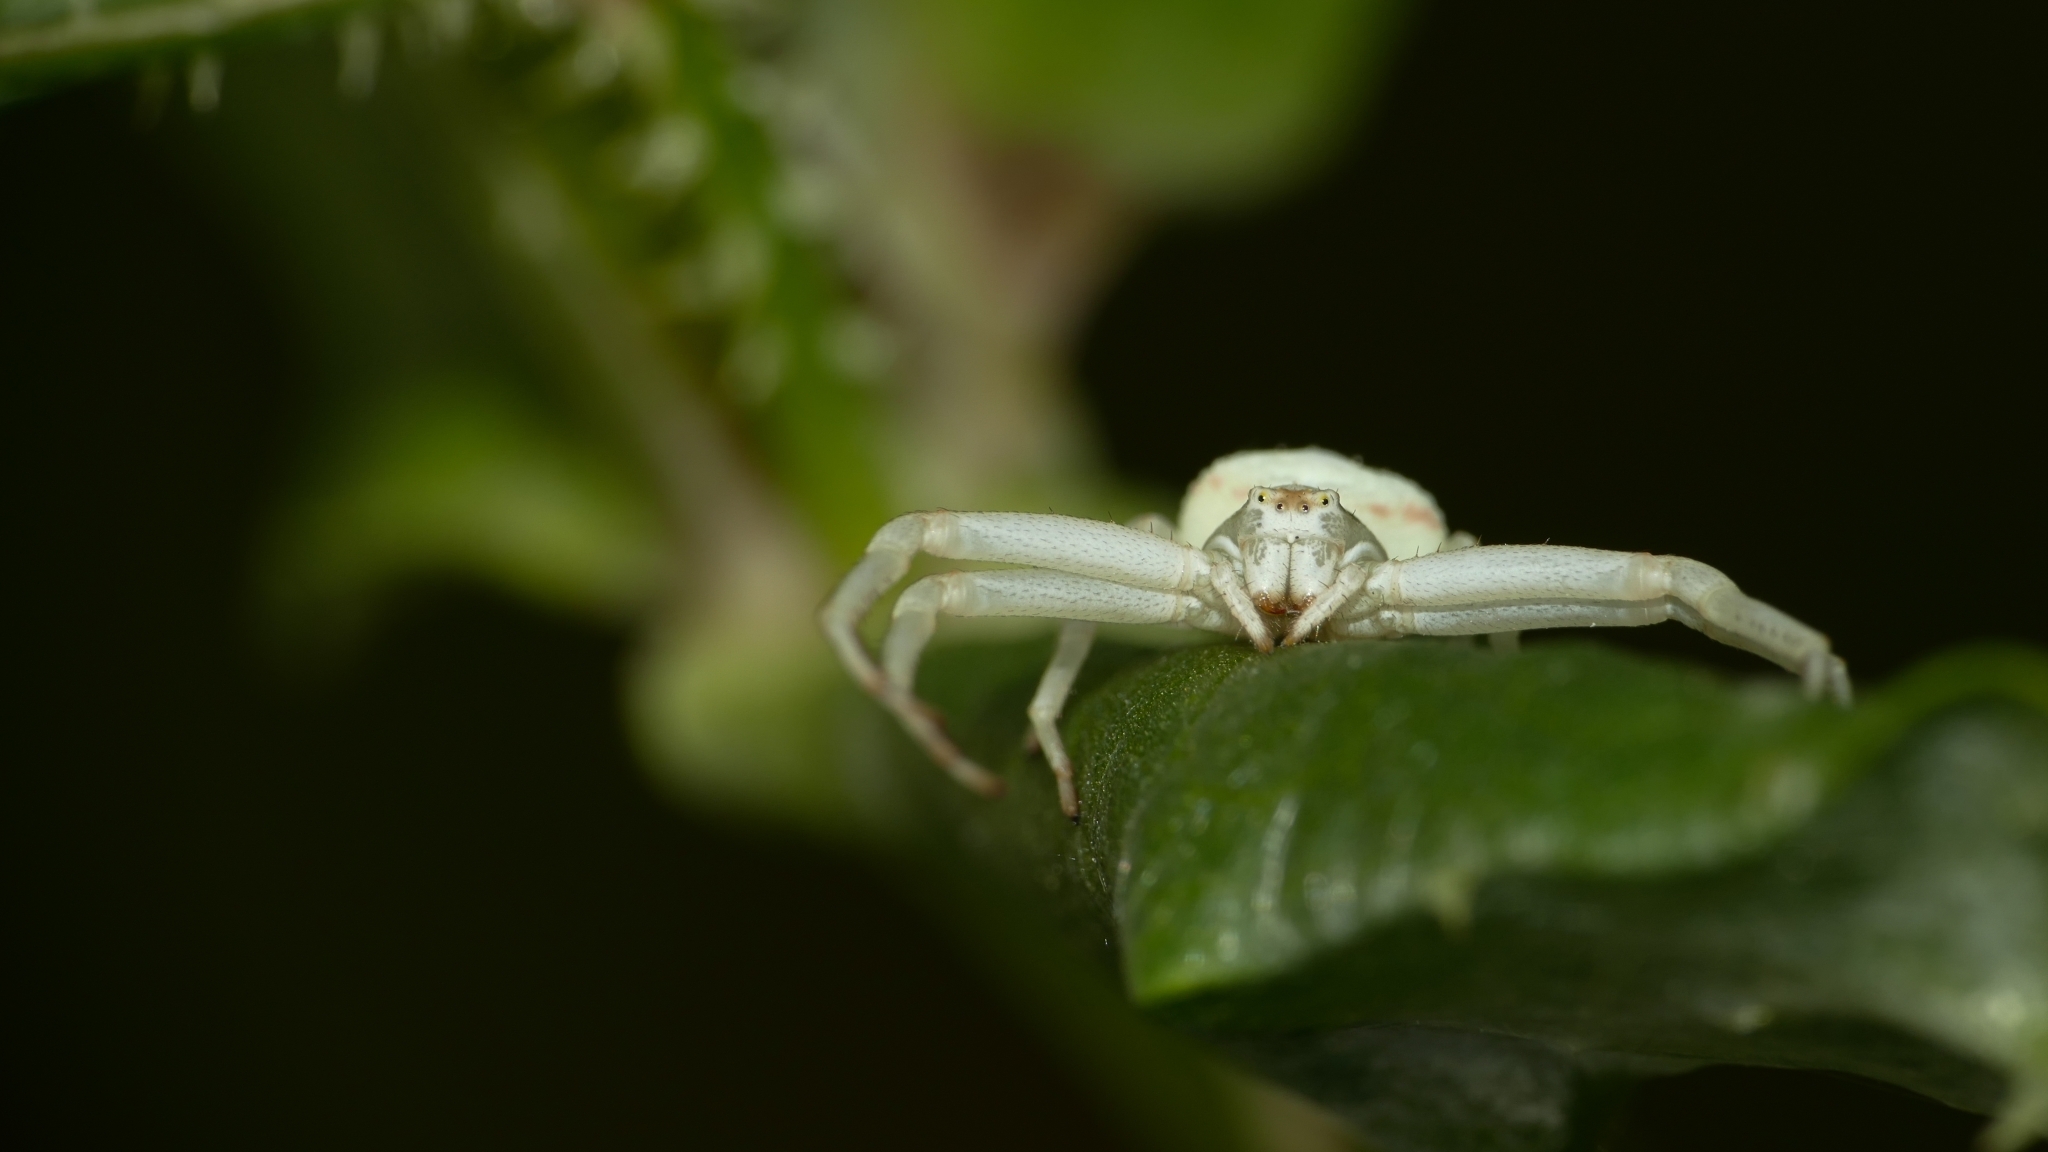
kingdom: Animalia
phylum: Arthropoda
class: Arachnida
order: Araneae
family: Thomisidae
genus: Misumena
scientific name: Misumena vatia
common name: Goldenrod crab spider
